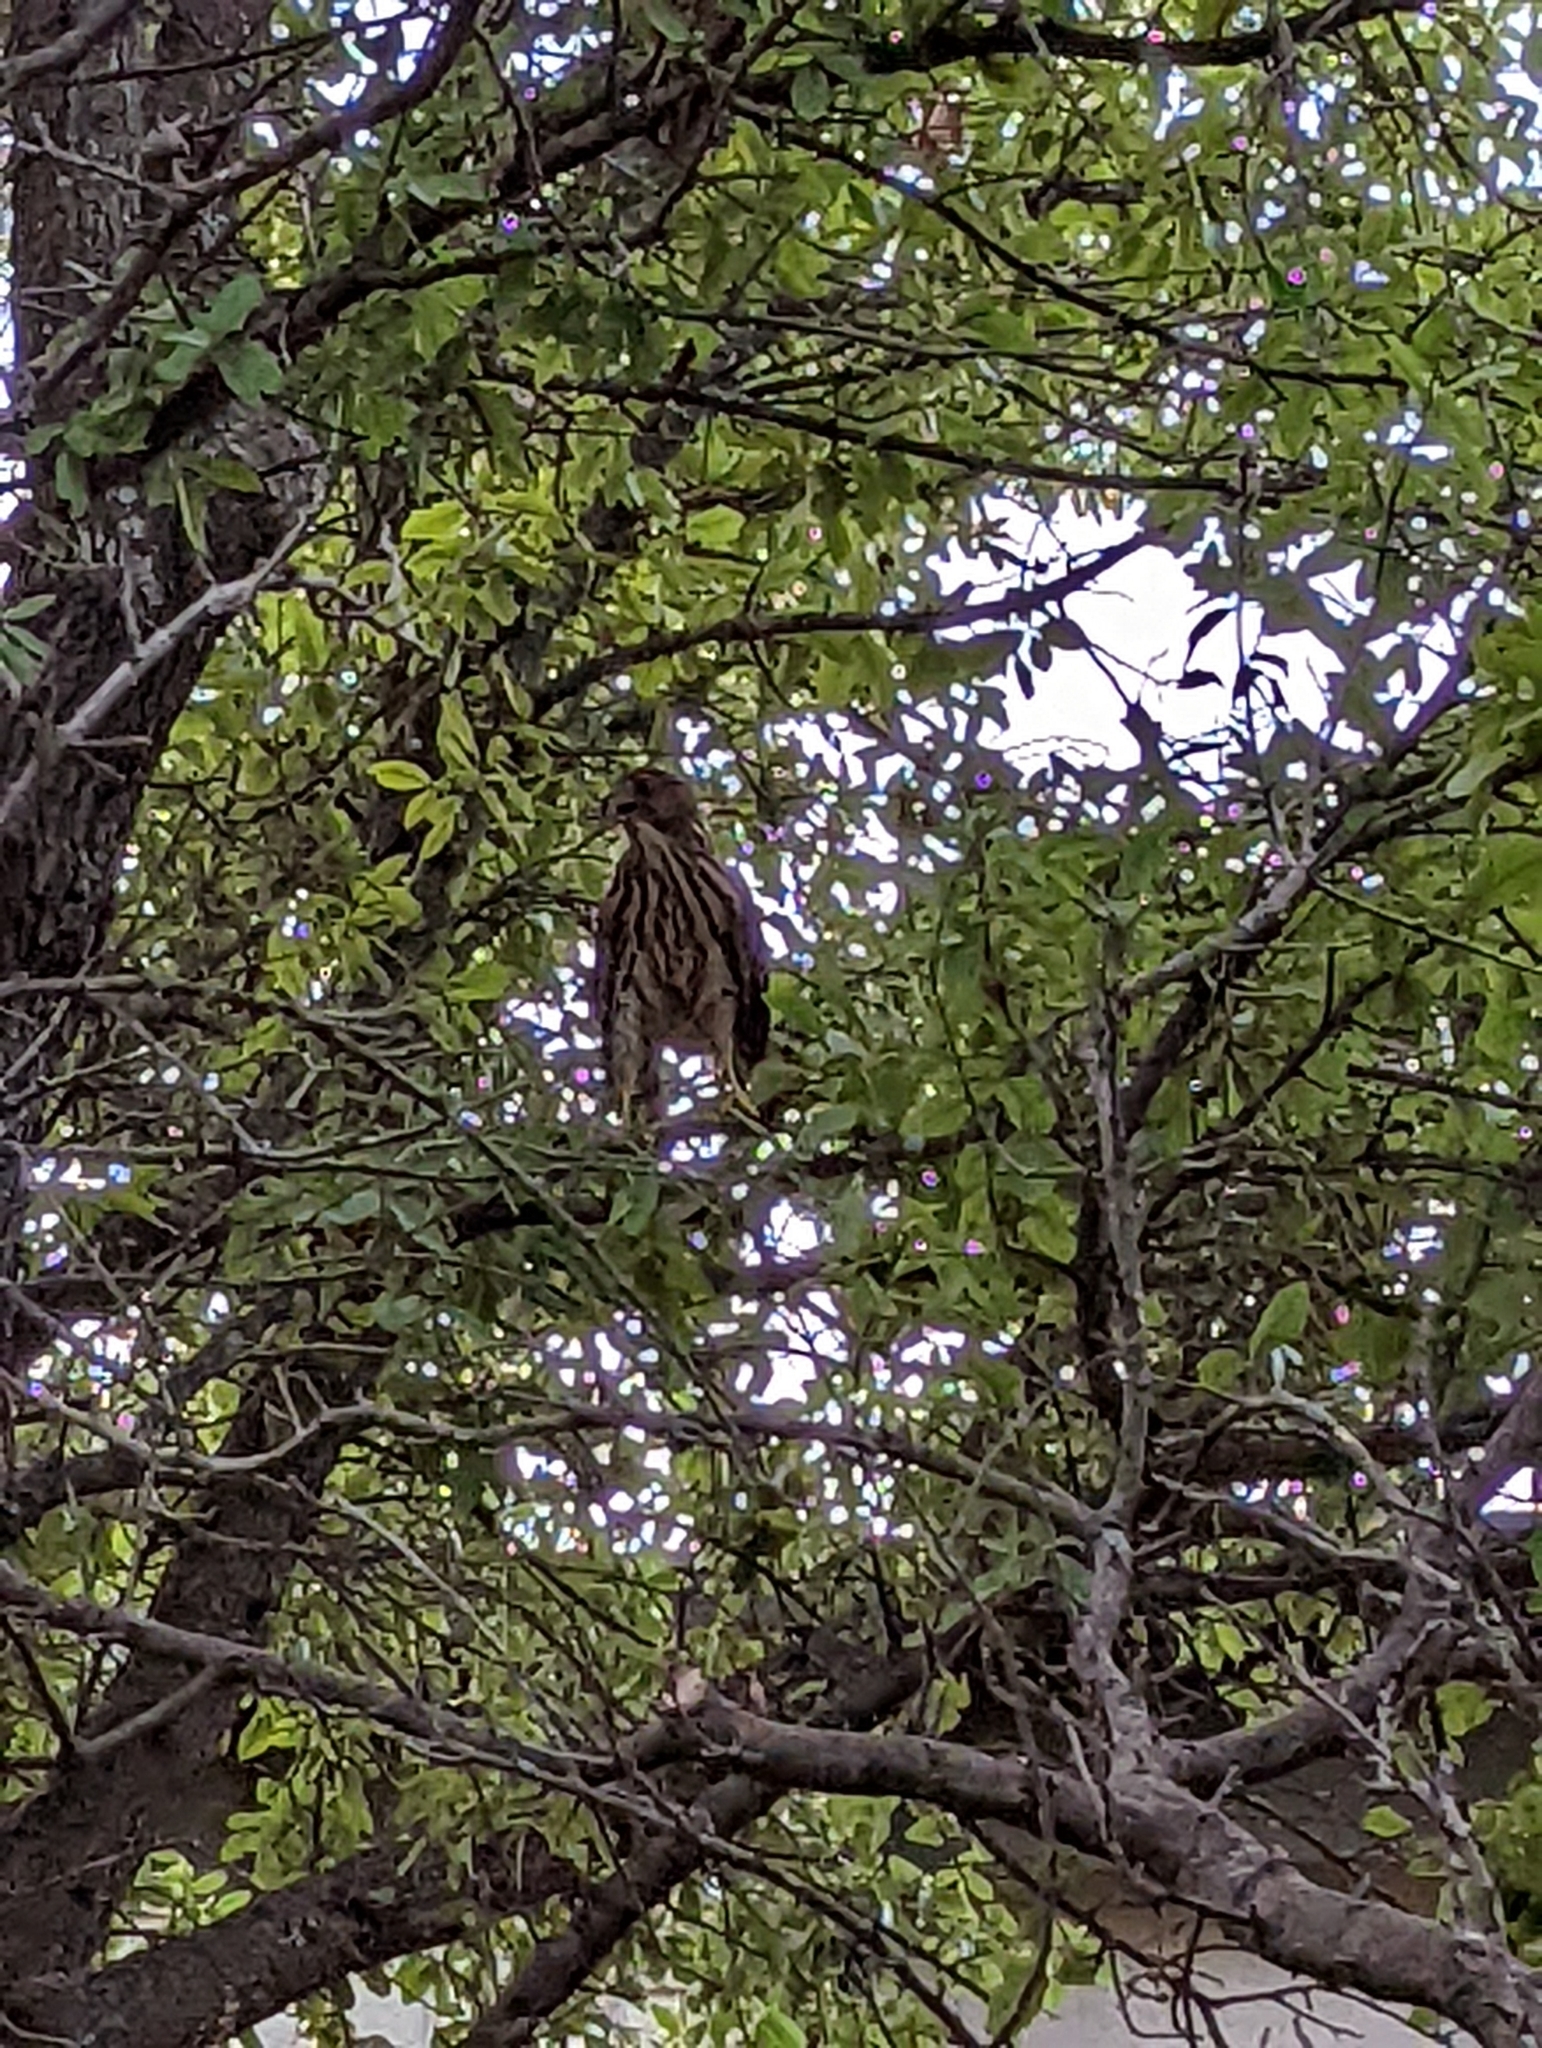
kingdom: Animalia
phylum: Chordata
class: Aves
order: Accipitriformes
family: Accipitridae
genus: Accipiter
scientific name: Accipiter cooperii
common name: Cooper's hawk
